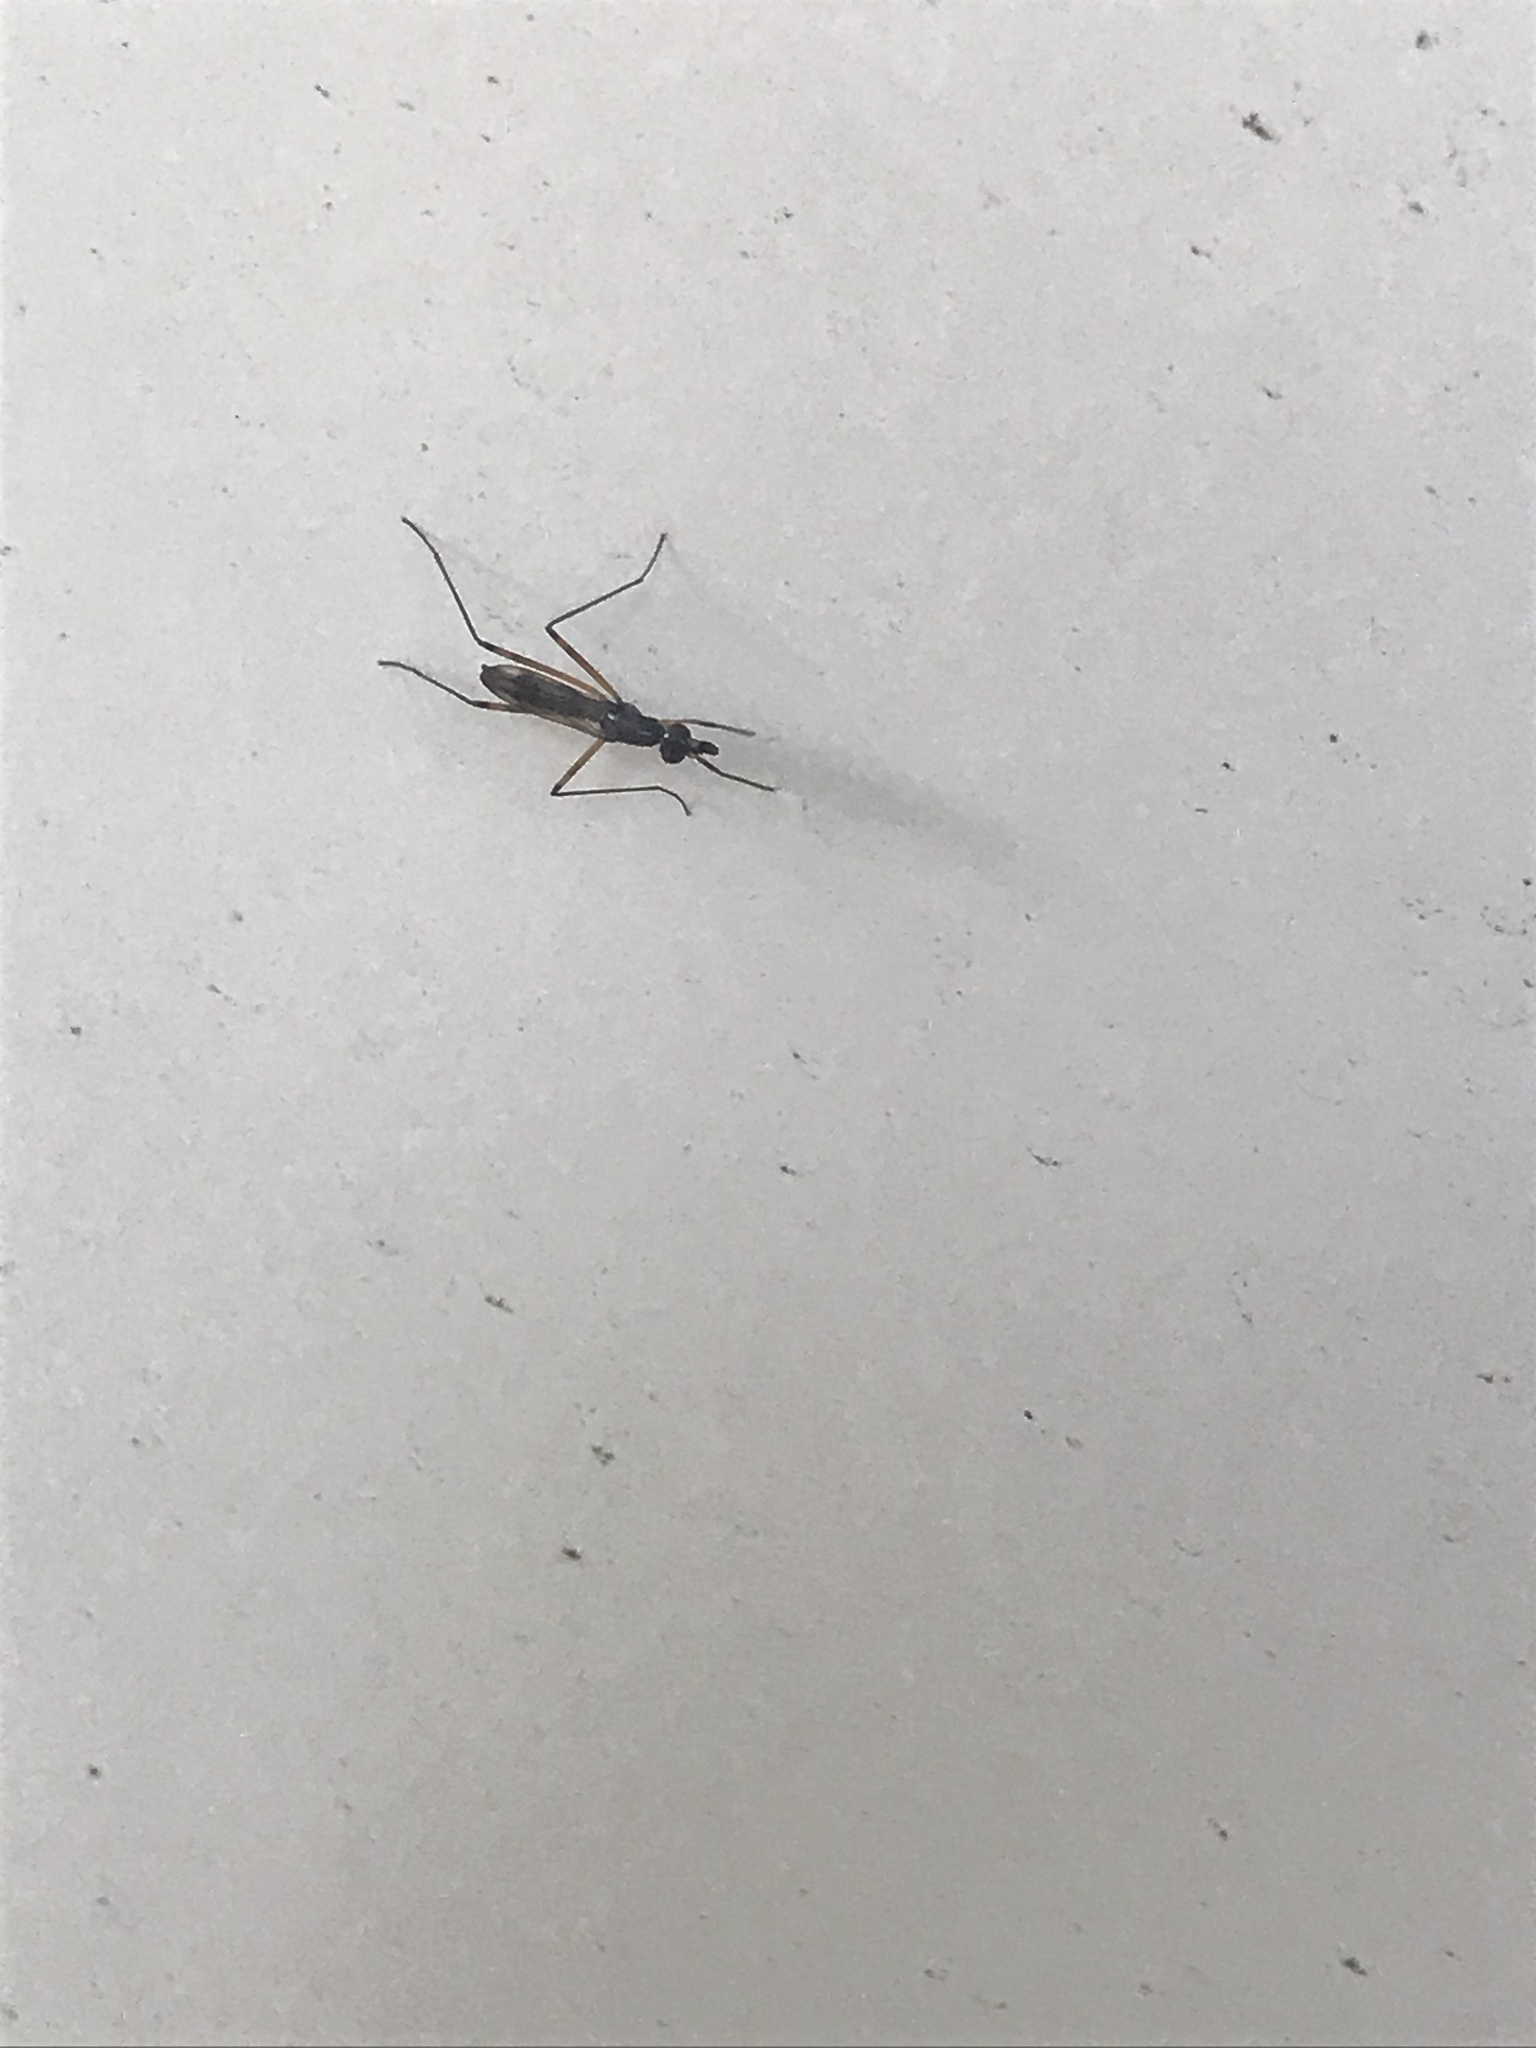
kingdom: Animalia
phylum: Arthropoda
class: Insecta
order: Diptera
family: Micropezidae
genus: Rainieria
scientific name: Rainieria antennaepes
